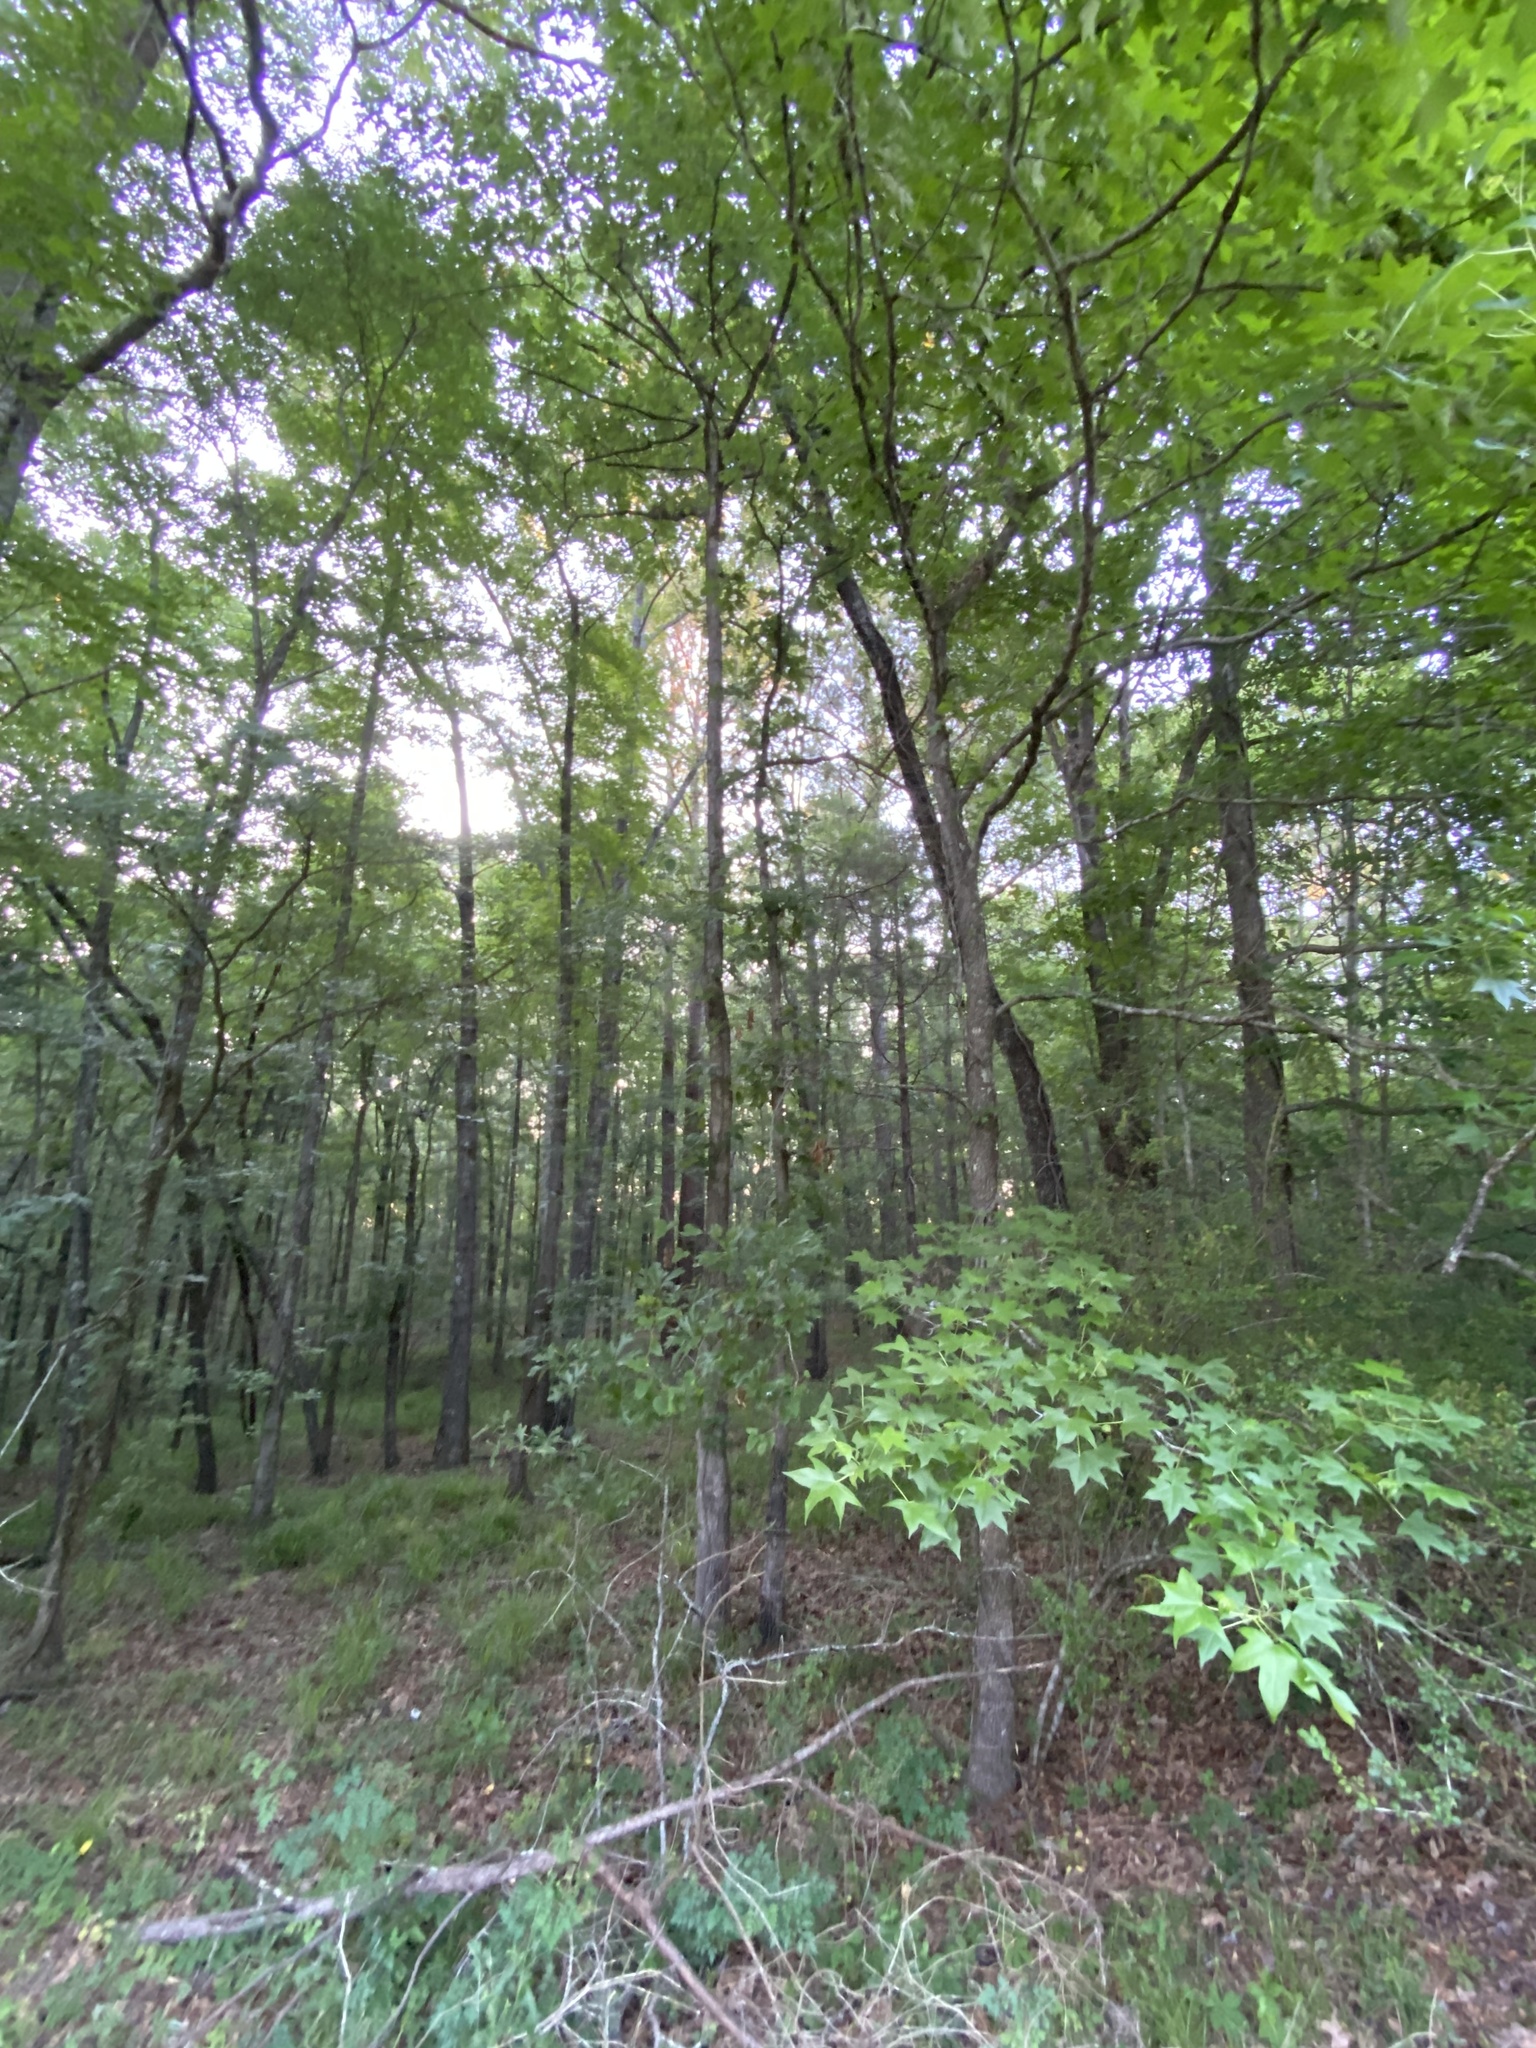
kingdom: Plantae
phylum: Tracheophyta
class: Magnoliopsida
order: Saxifragales
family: Altingiaceae
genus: Liquidambar
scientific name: Liquidambar styraciflua
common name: Sweet gum
